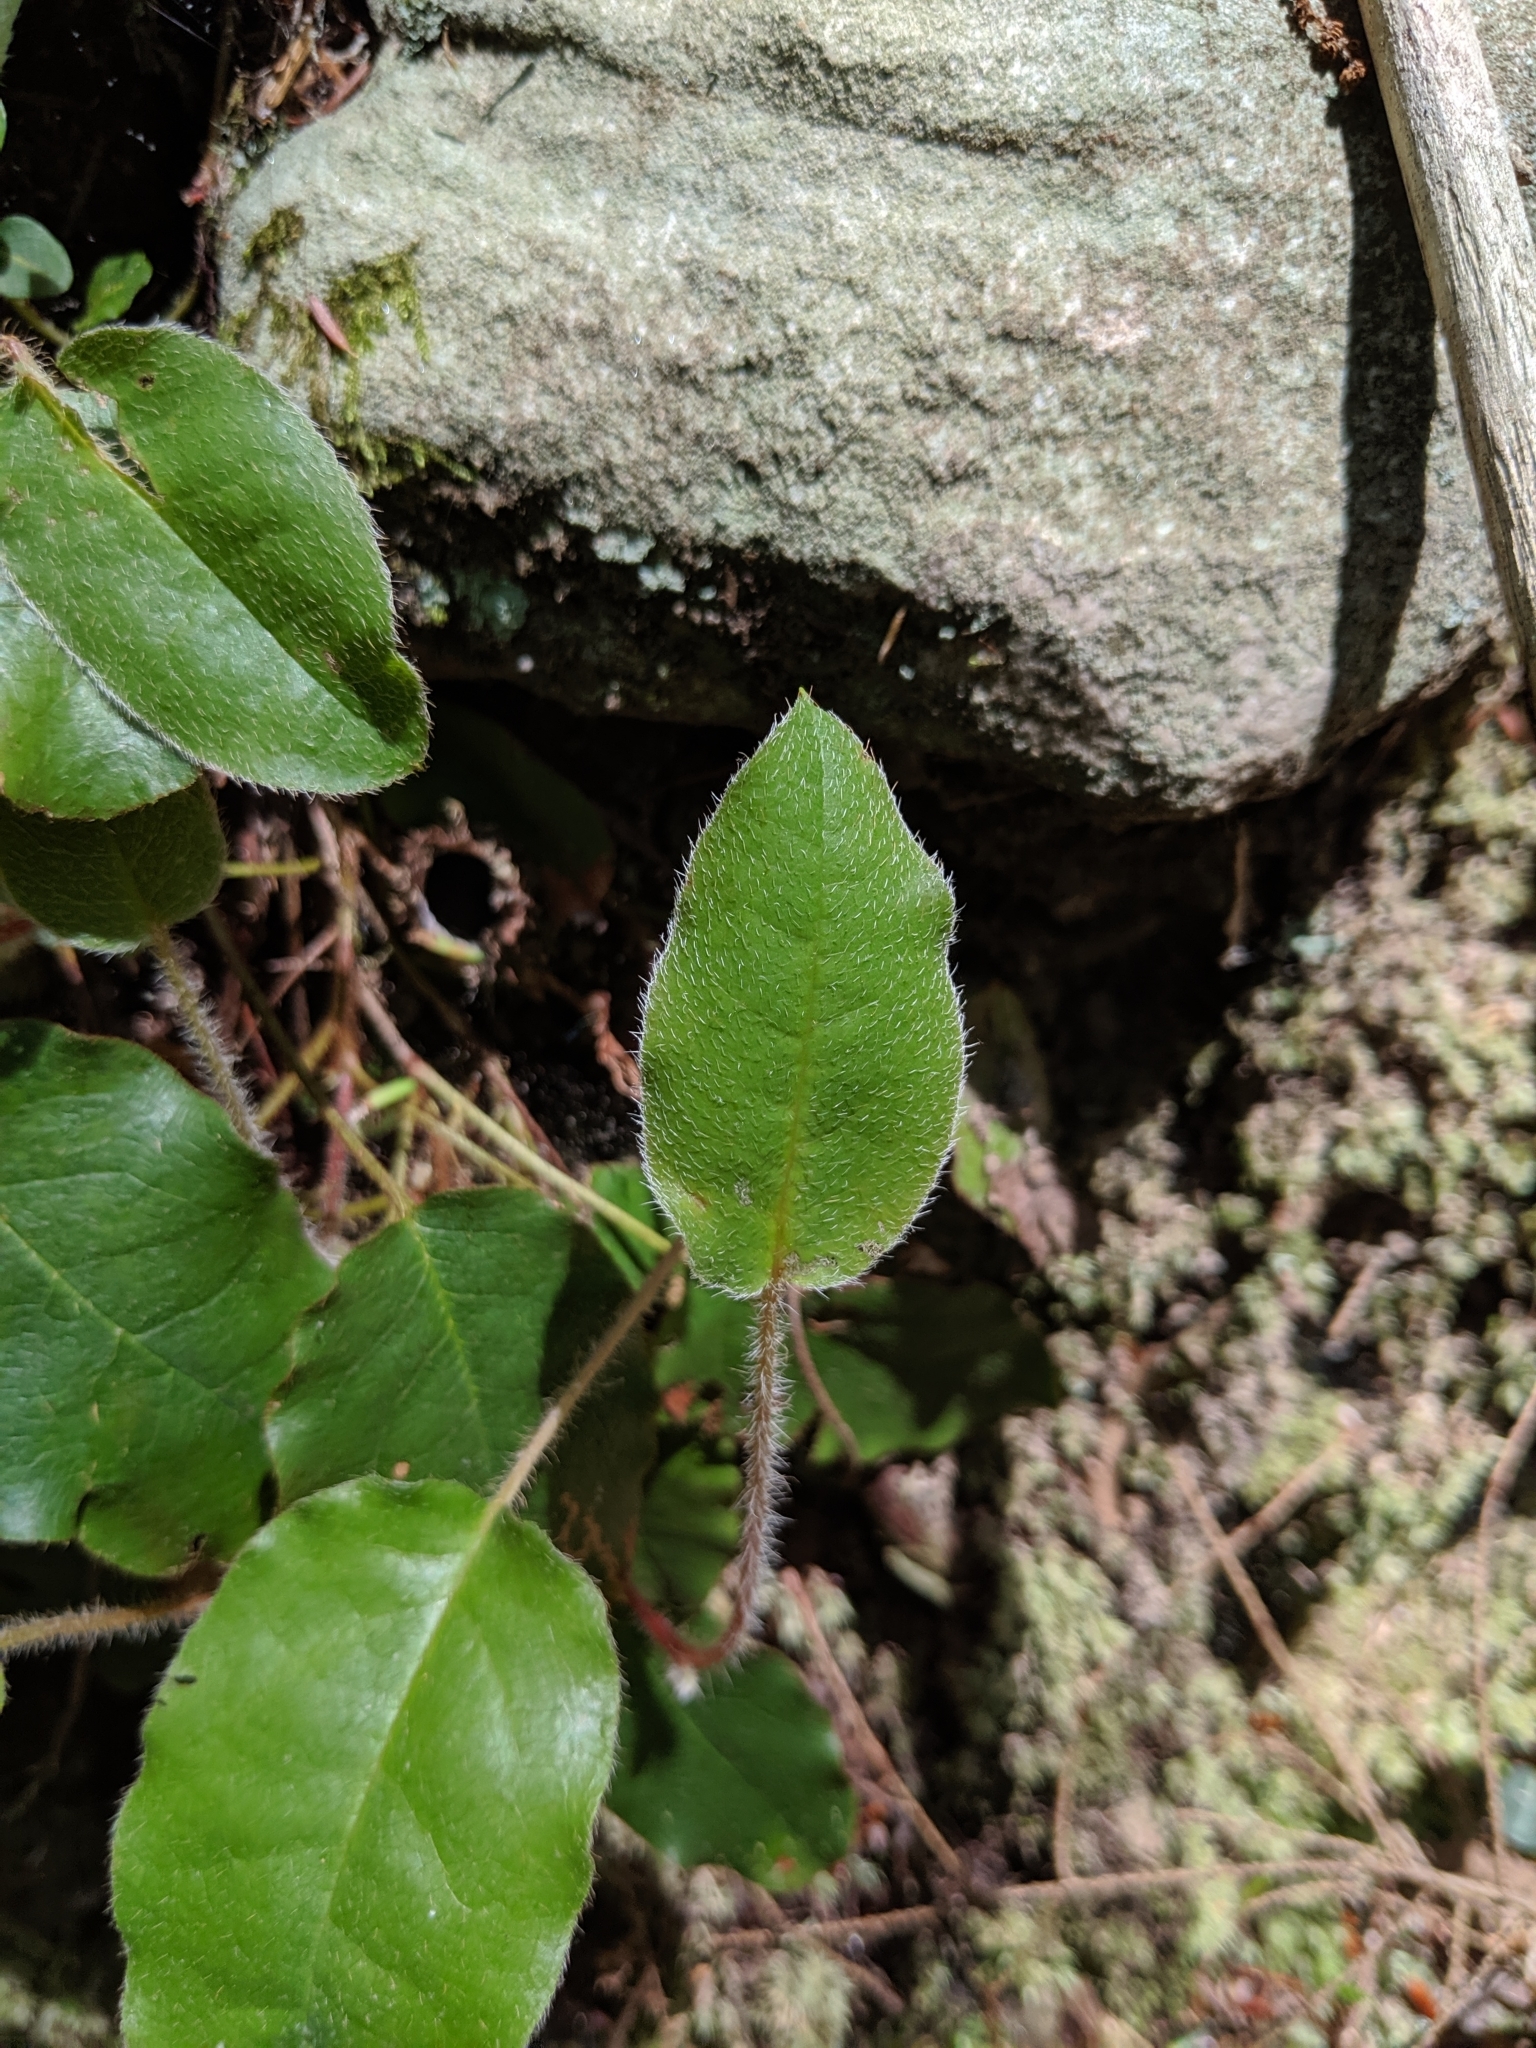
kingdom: Plantae
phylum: Tracheophyta
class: Magnoliopsida
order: Ericales
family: Ericaceae
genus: Epigaea
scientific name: Epigaea repens
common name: Gravelroot
